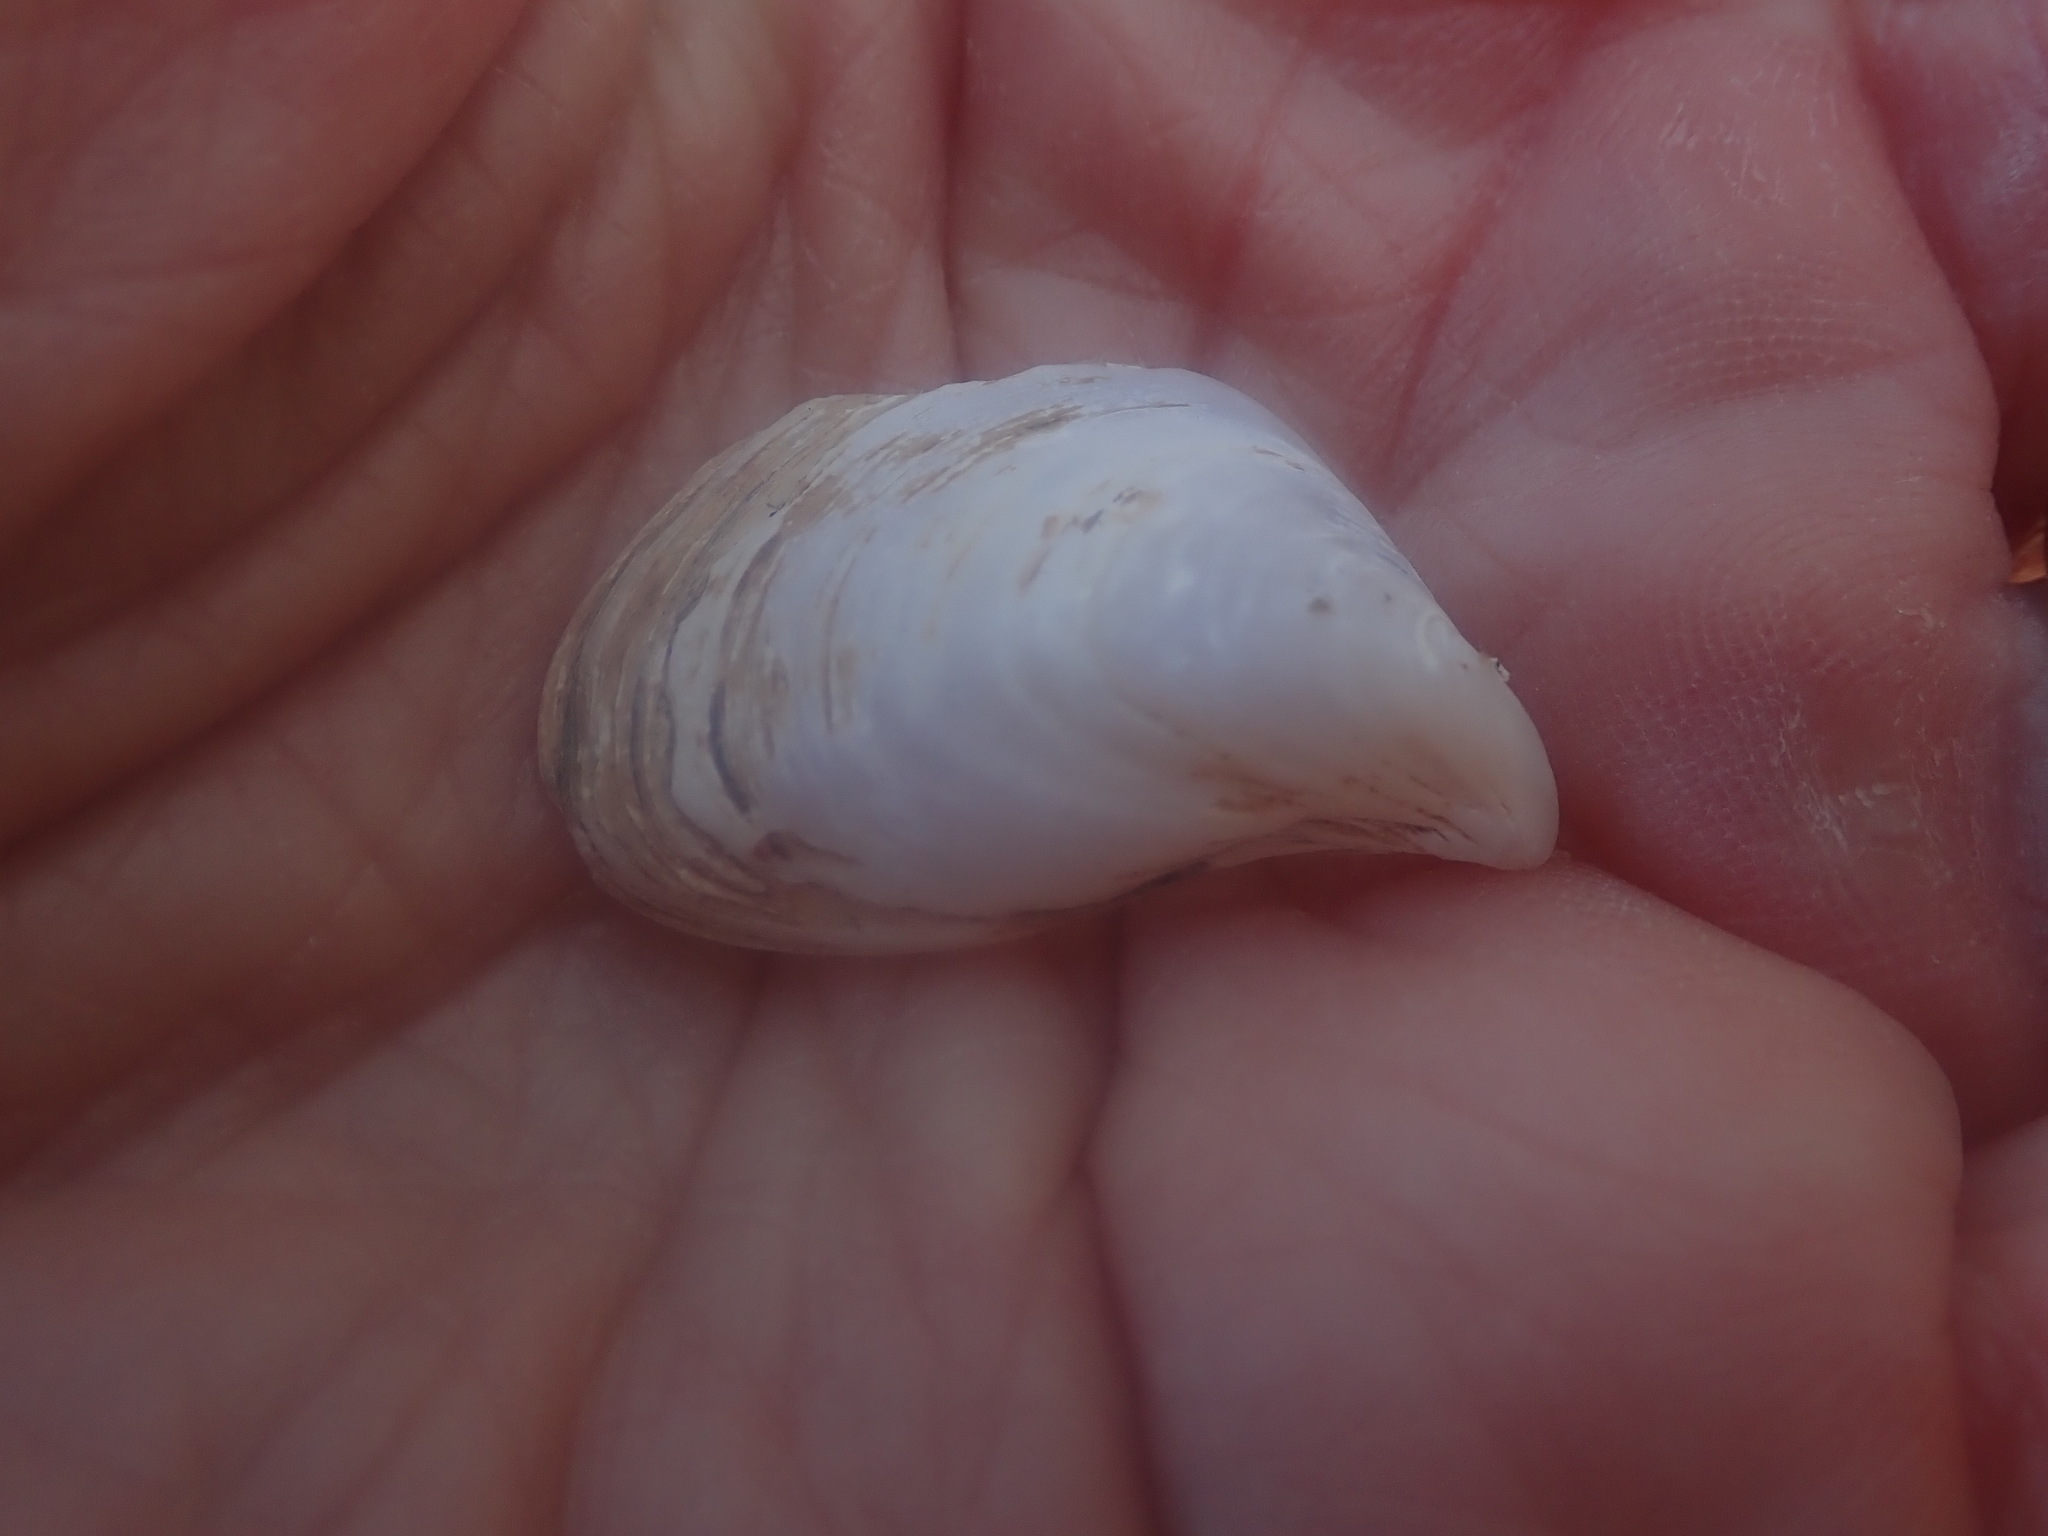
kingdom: Animalia
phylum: Mollusca
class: Bivalvia
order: Myida
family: Dreissenidae
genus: Dreissena
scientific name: Dreissena bugensis
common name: Quagga mussel
